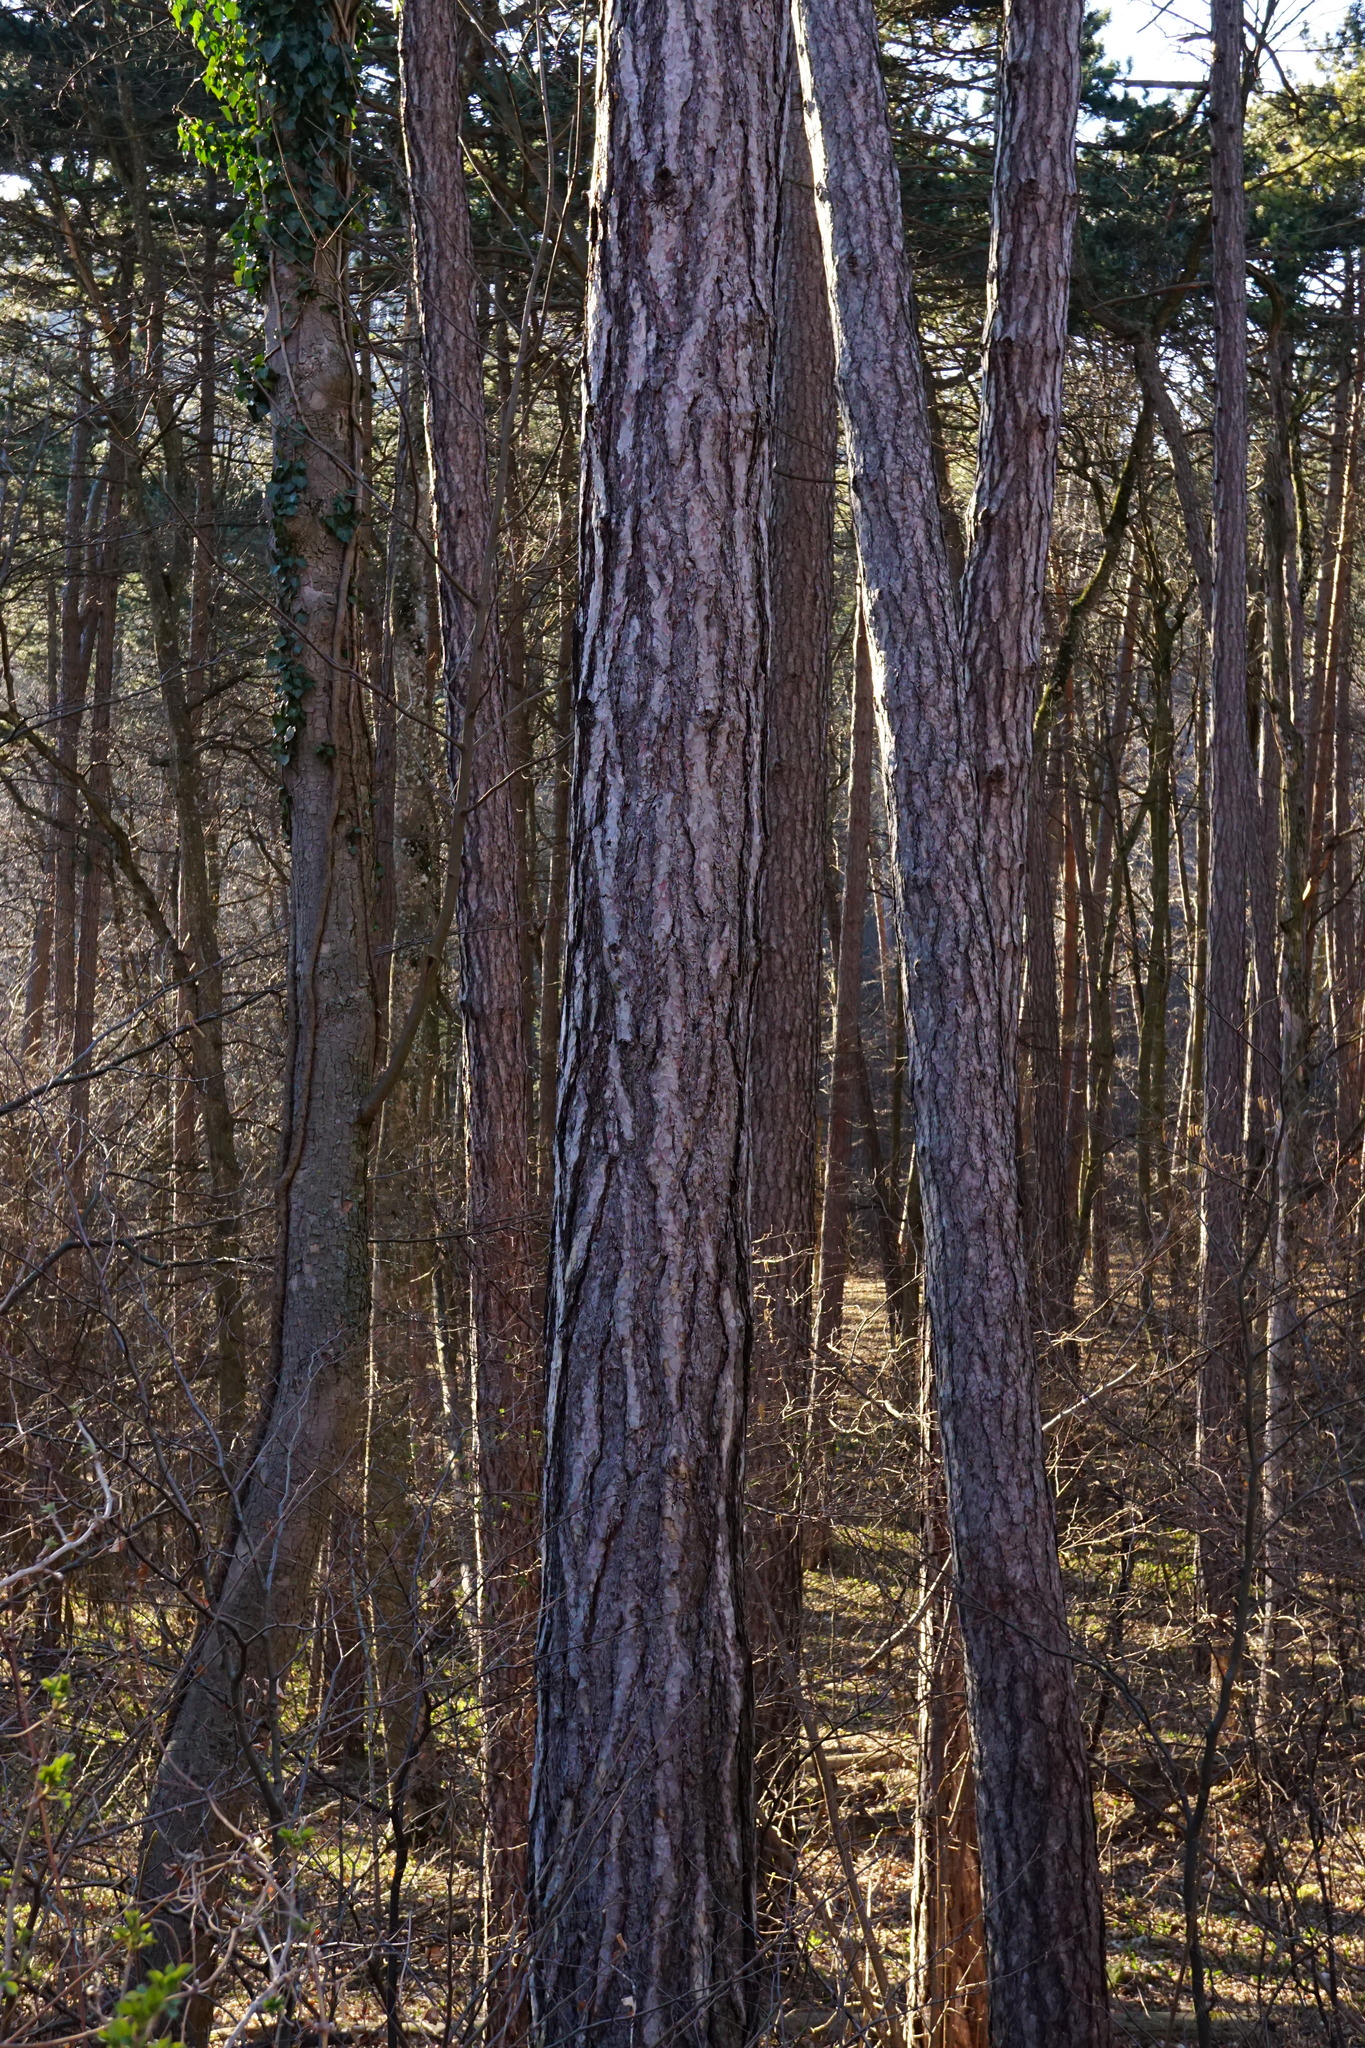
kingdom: Plantae
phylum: Tracheophyta
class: Pinopsida
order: Pinales
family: Pinaceae
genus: Pinus
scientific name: Pinus nigra
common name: Austrian pine
